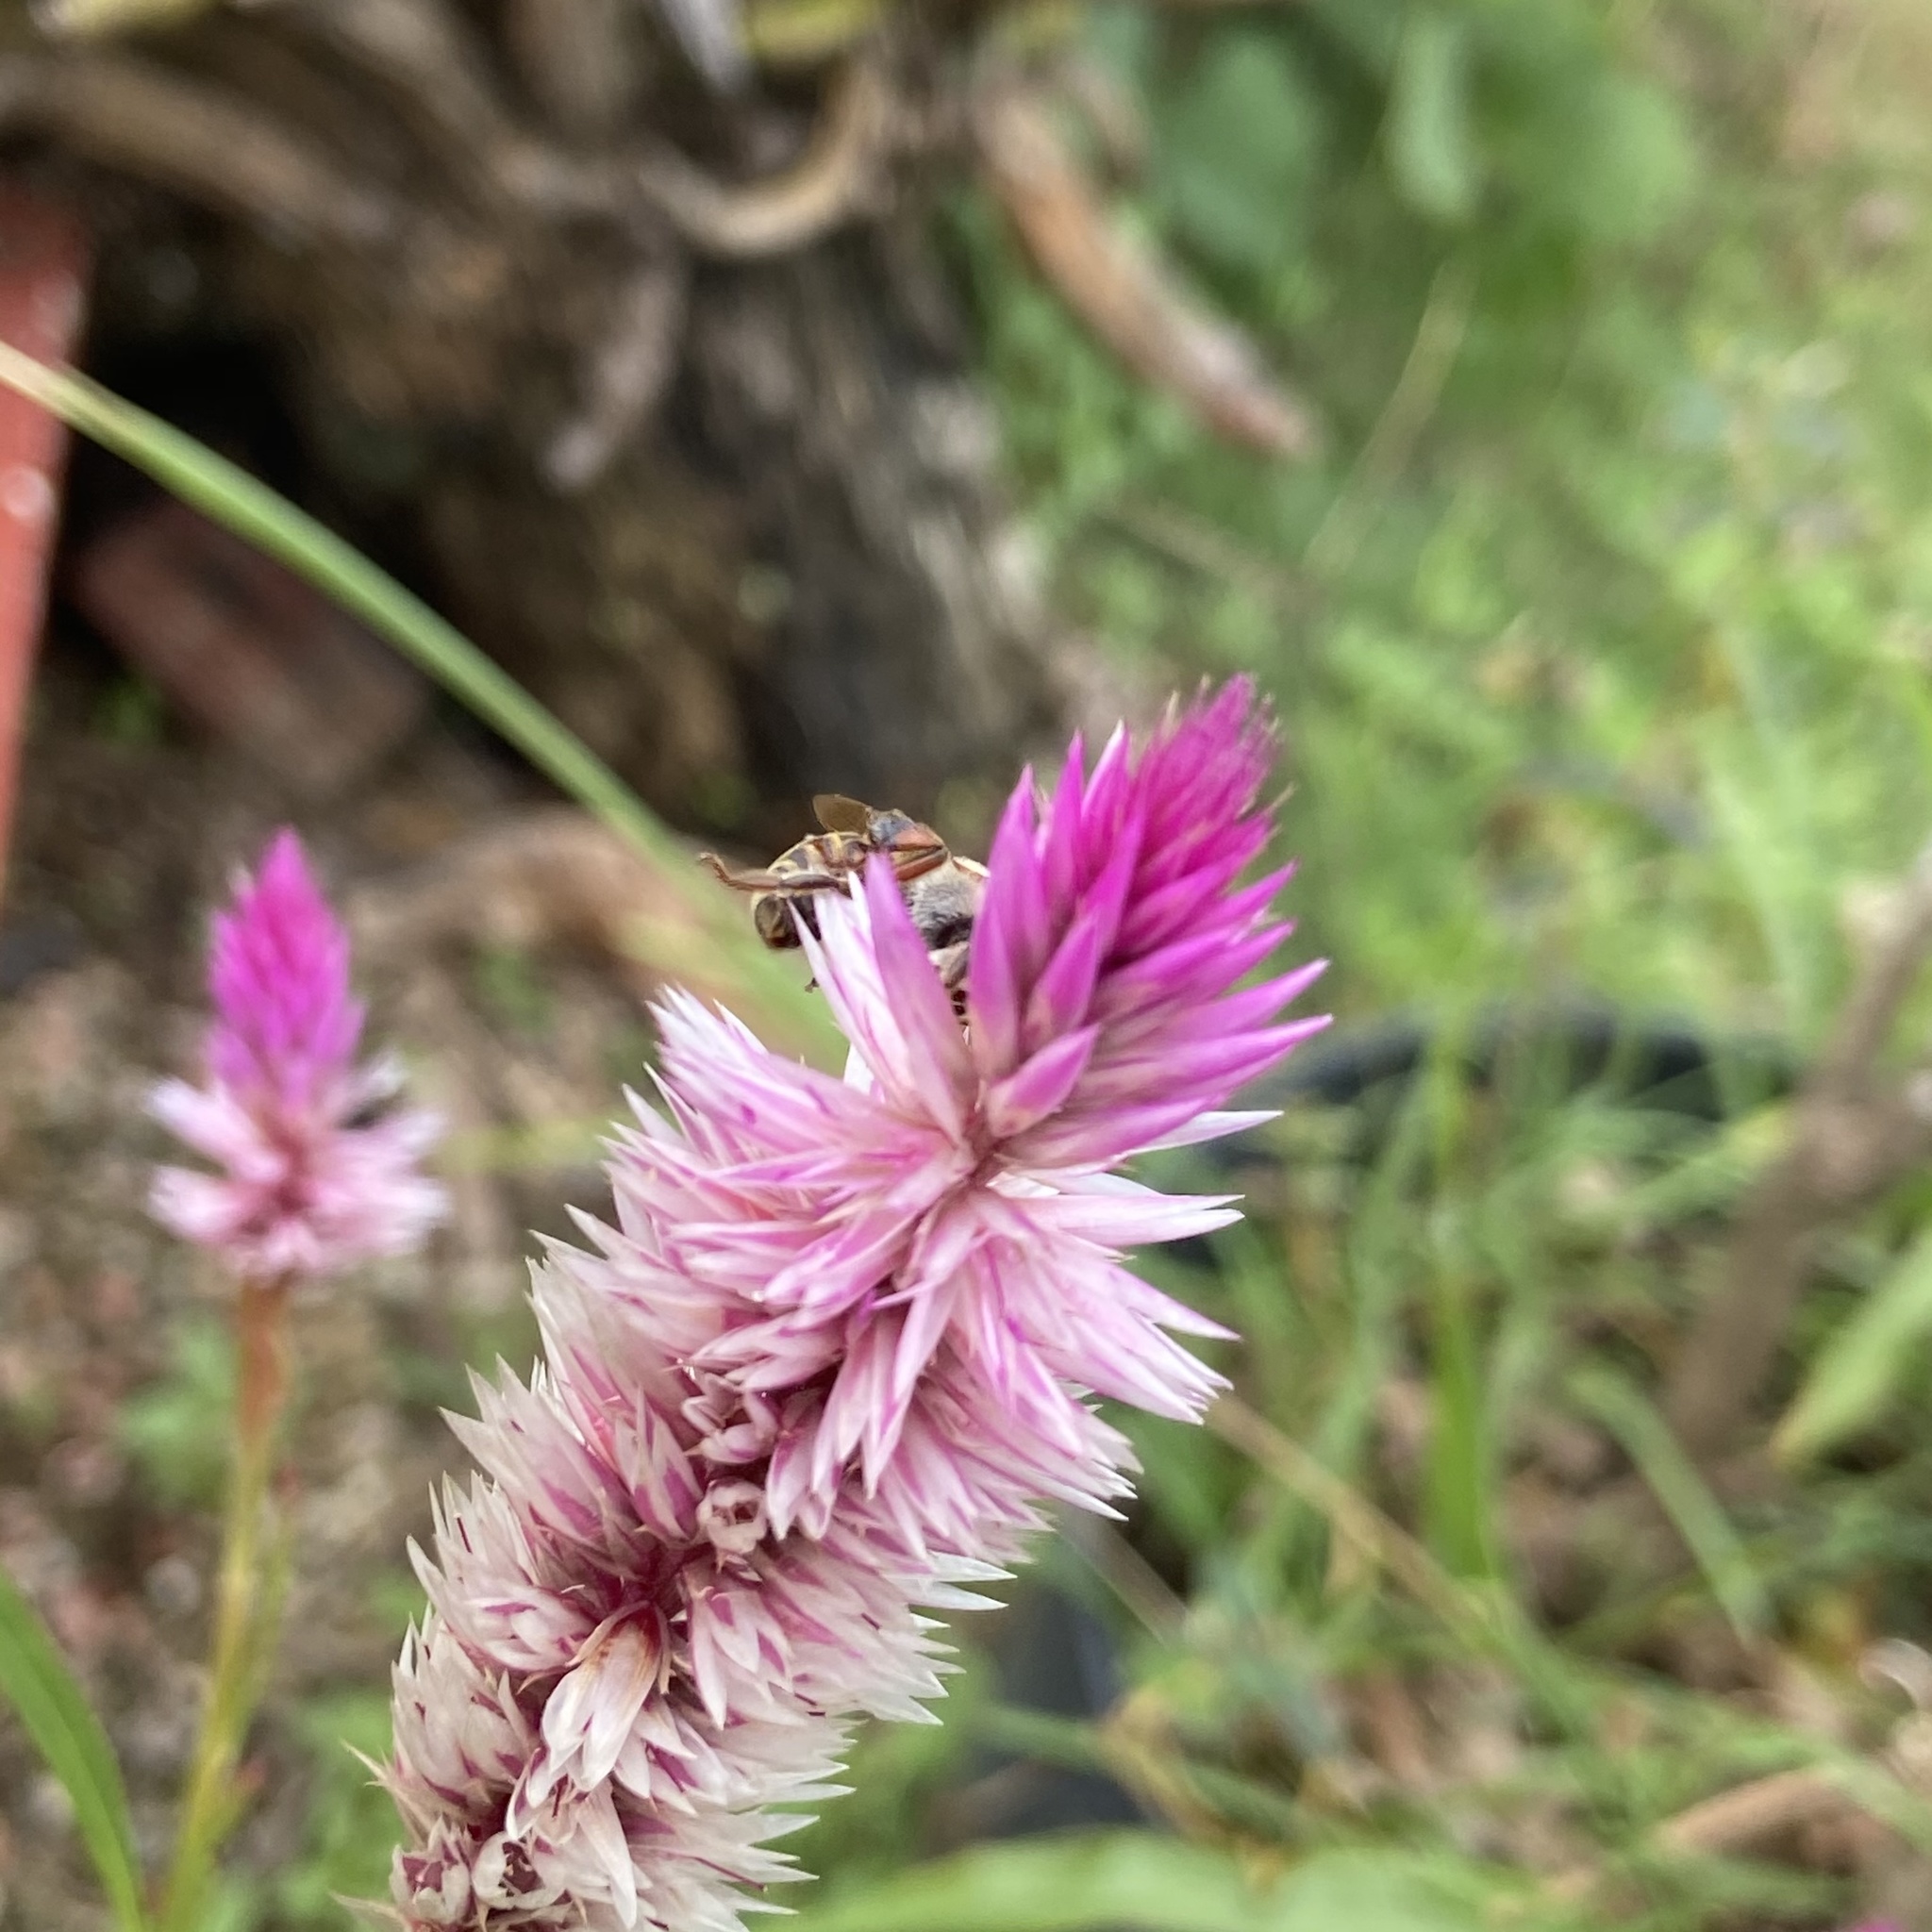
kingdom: Plantae
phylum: Tracheophyta
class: Magnoliopsida
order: Caryophyllales
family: Amaranthaceae
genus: Celosia
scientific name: Celosia spicata
